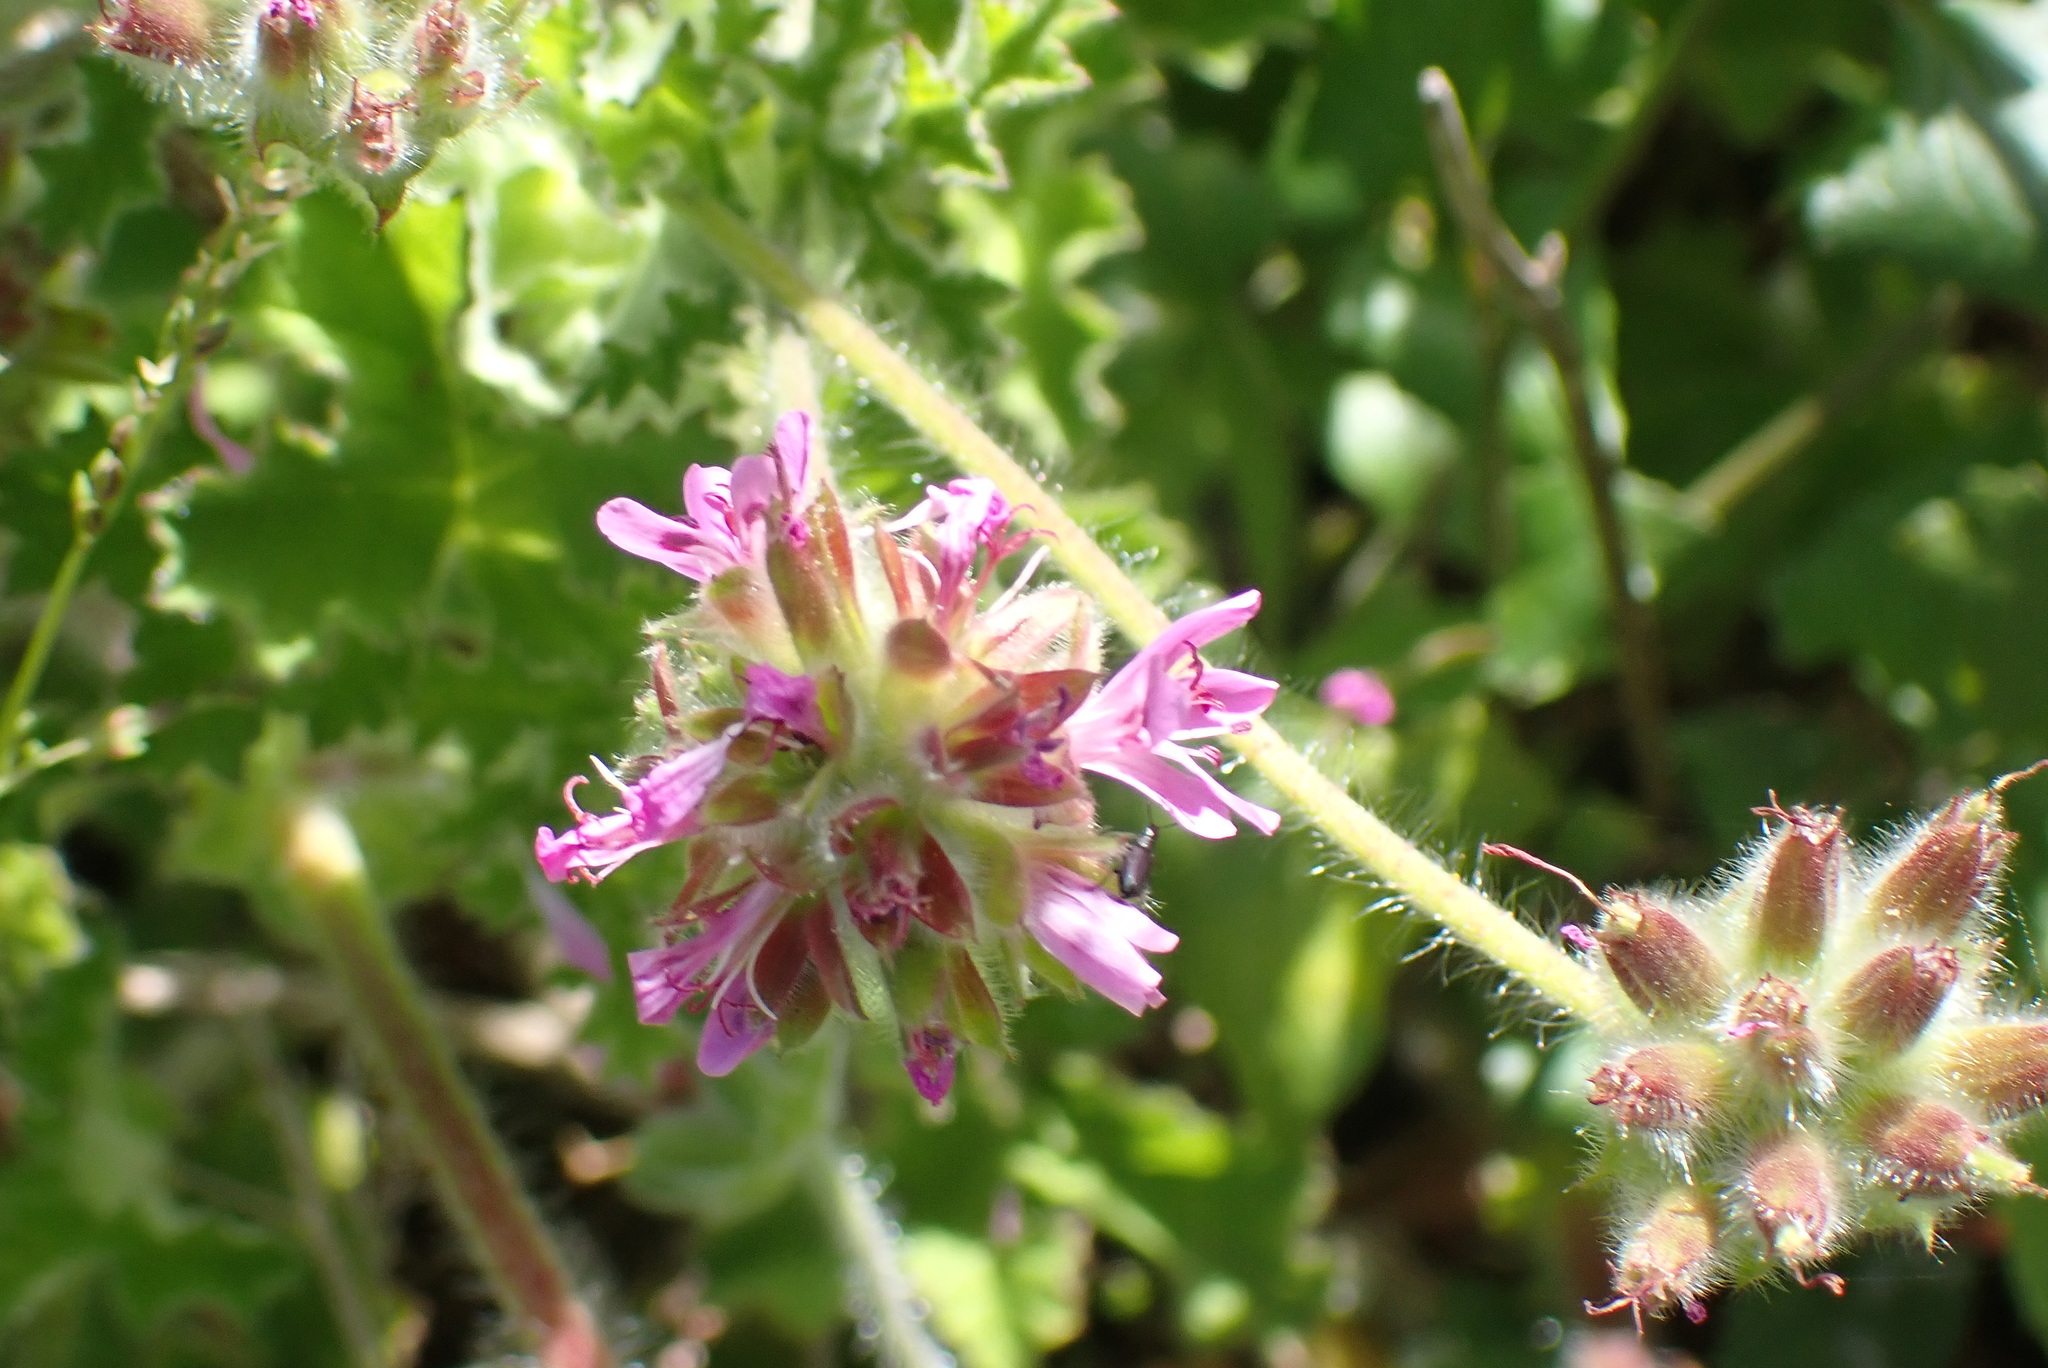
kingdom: Plantae
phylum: Tracheophyta
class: Magnoliopsida
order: Geraniales
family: Geraniaceae
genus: Pelargonium
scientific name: Pelargonium capitatum
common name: Rose scented geranium
